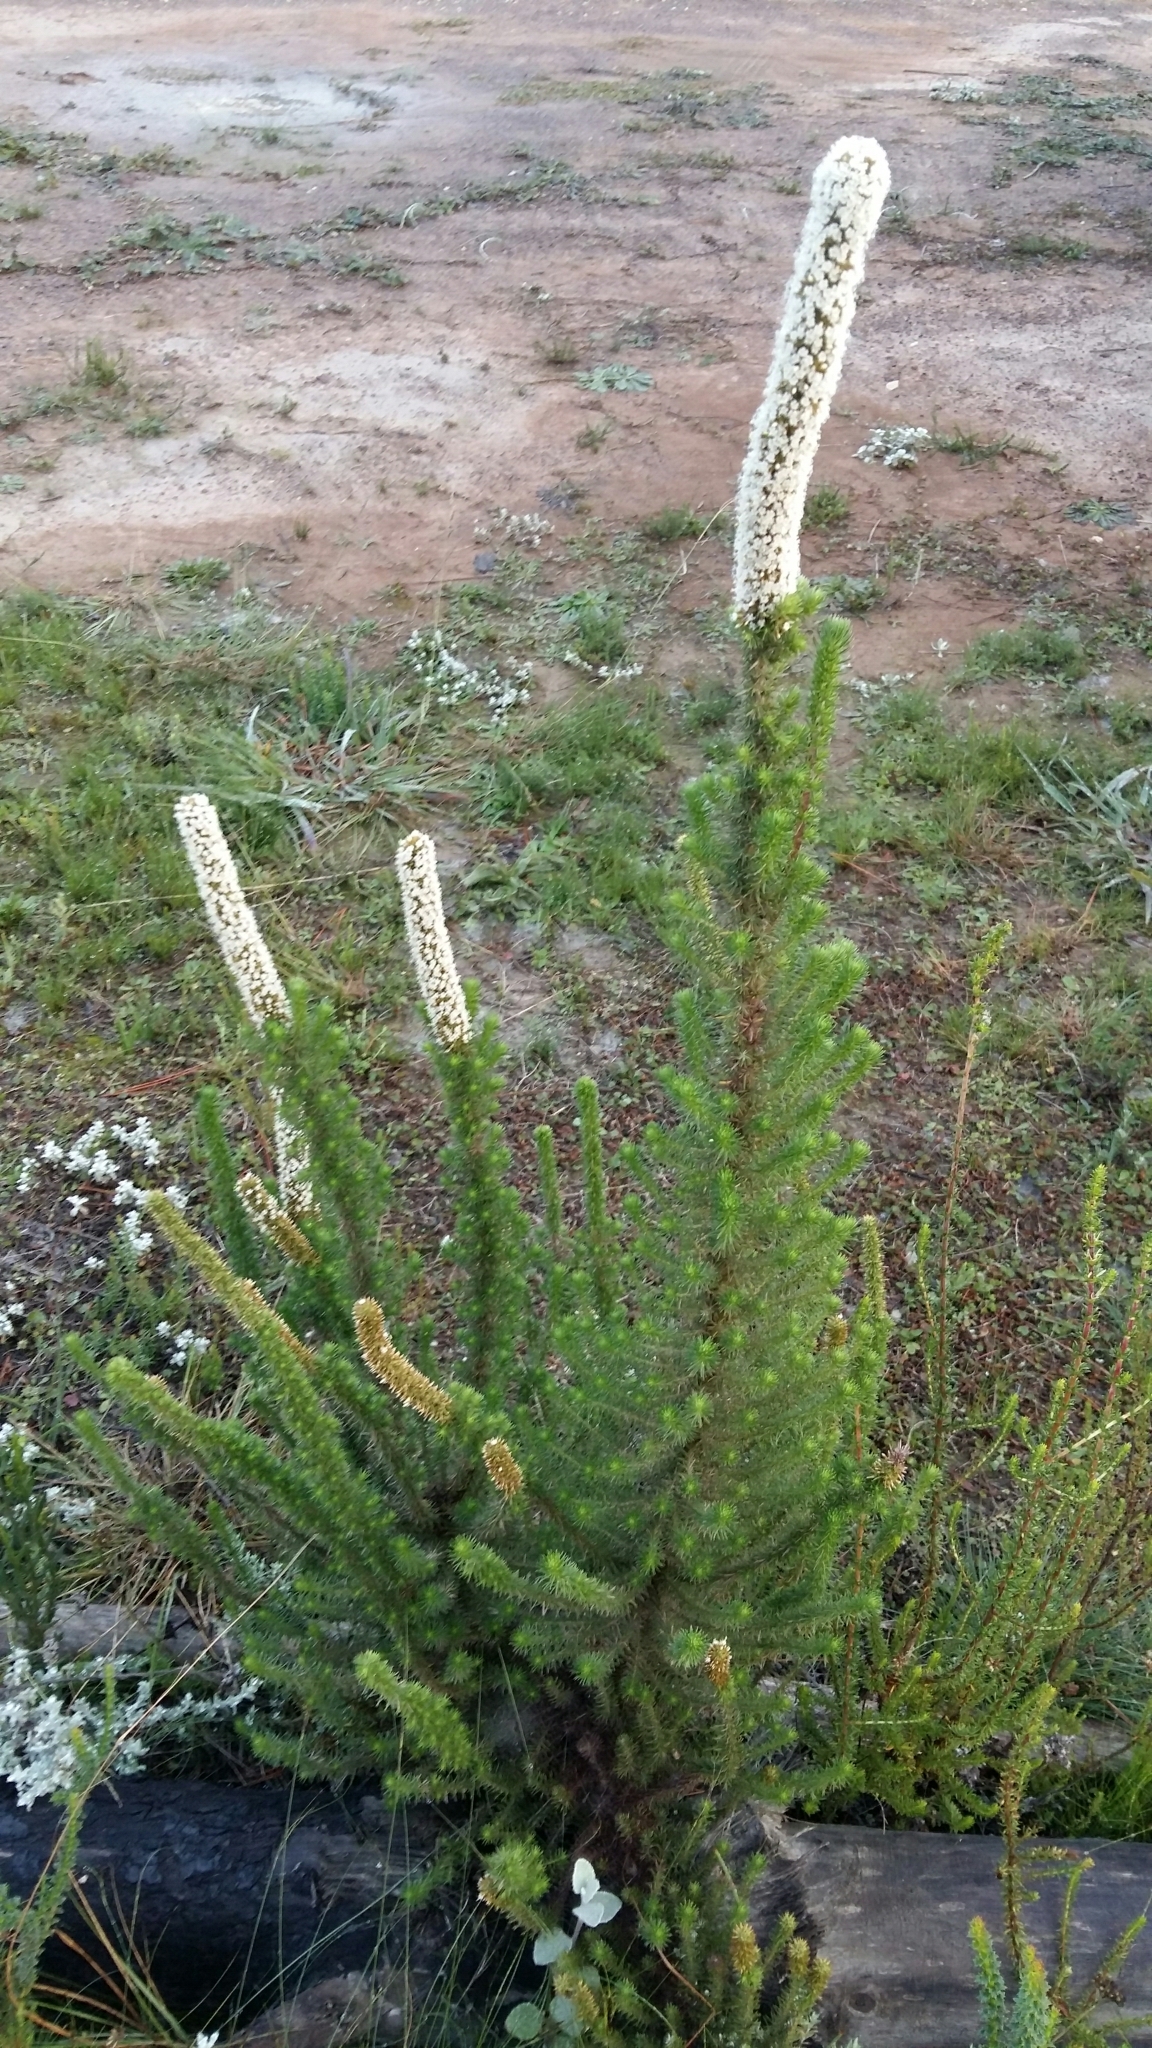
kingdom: Plantae
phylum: Tracheophyta
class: Magnoliopsida
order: Asterales
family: Asteraceae
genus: Stoebe
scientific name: Stoebe alopecuroides
